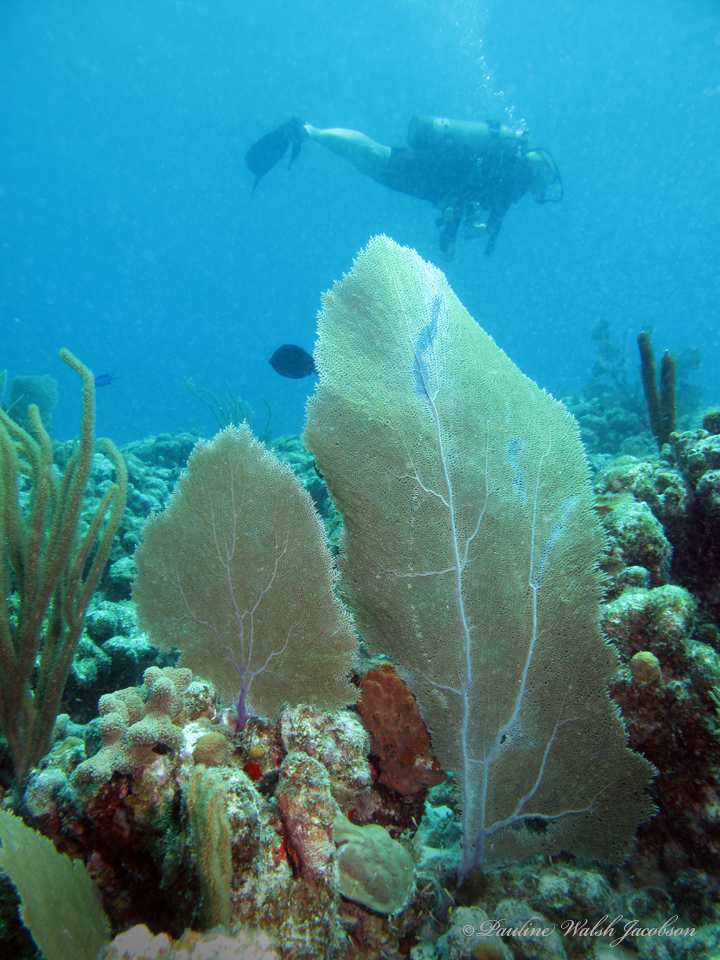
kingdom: Animalia
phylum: Cnidaria
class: Anthozoa
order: Malacalcyonacea
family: Gorgoniidae
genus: Gorgonia
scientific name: Gorgonia ventalina
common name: Common sea fan
